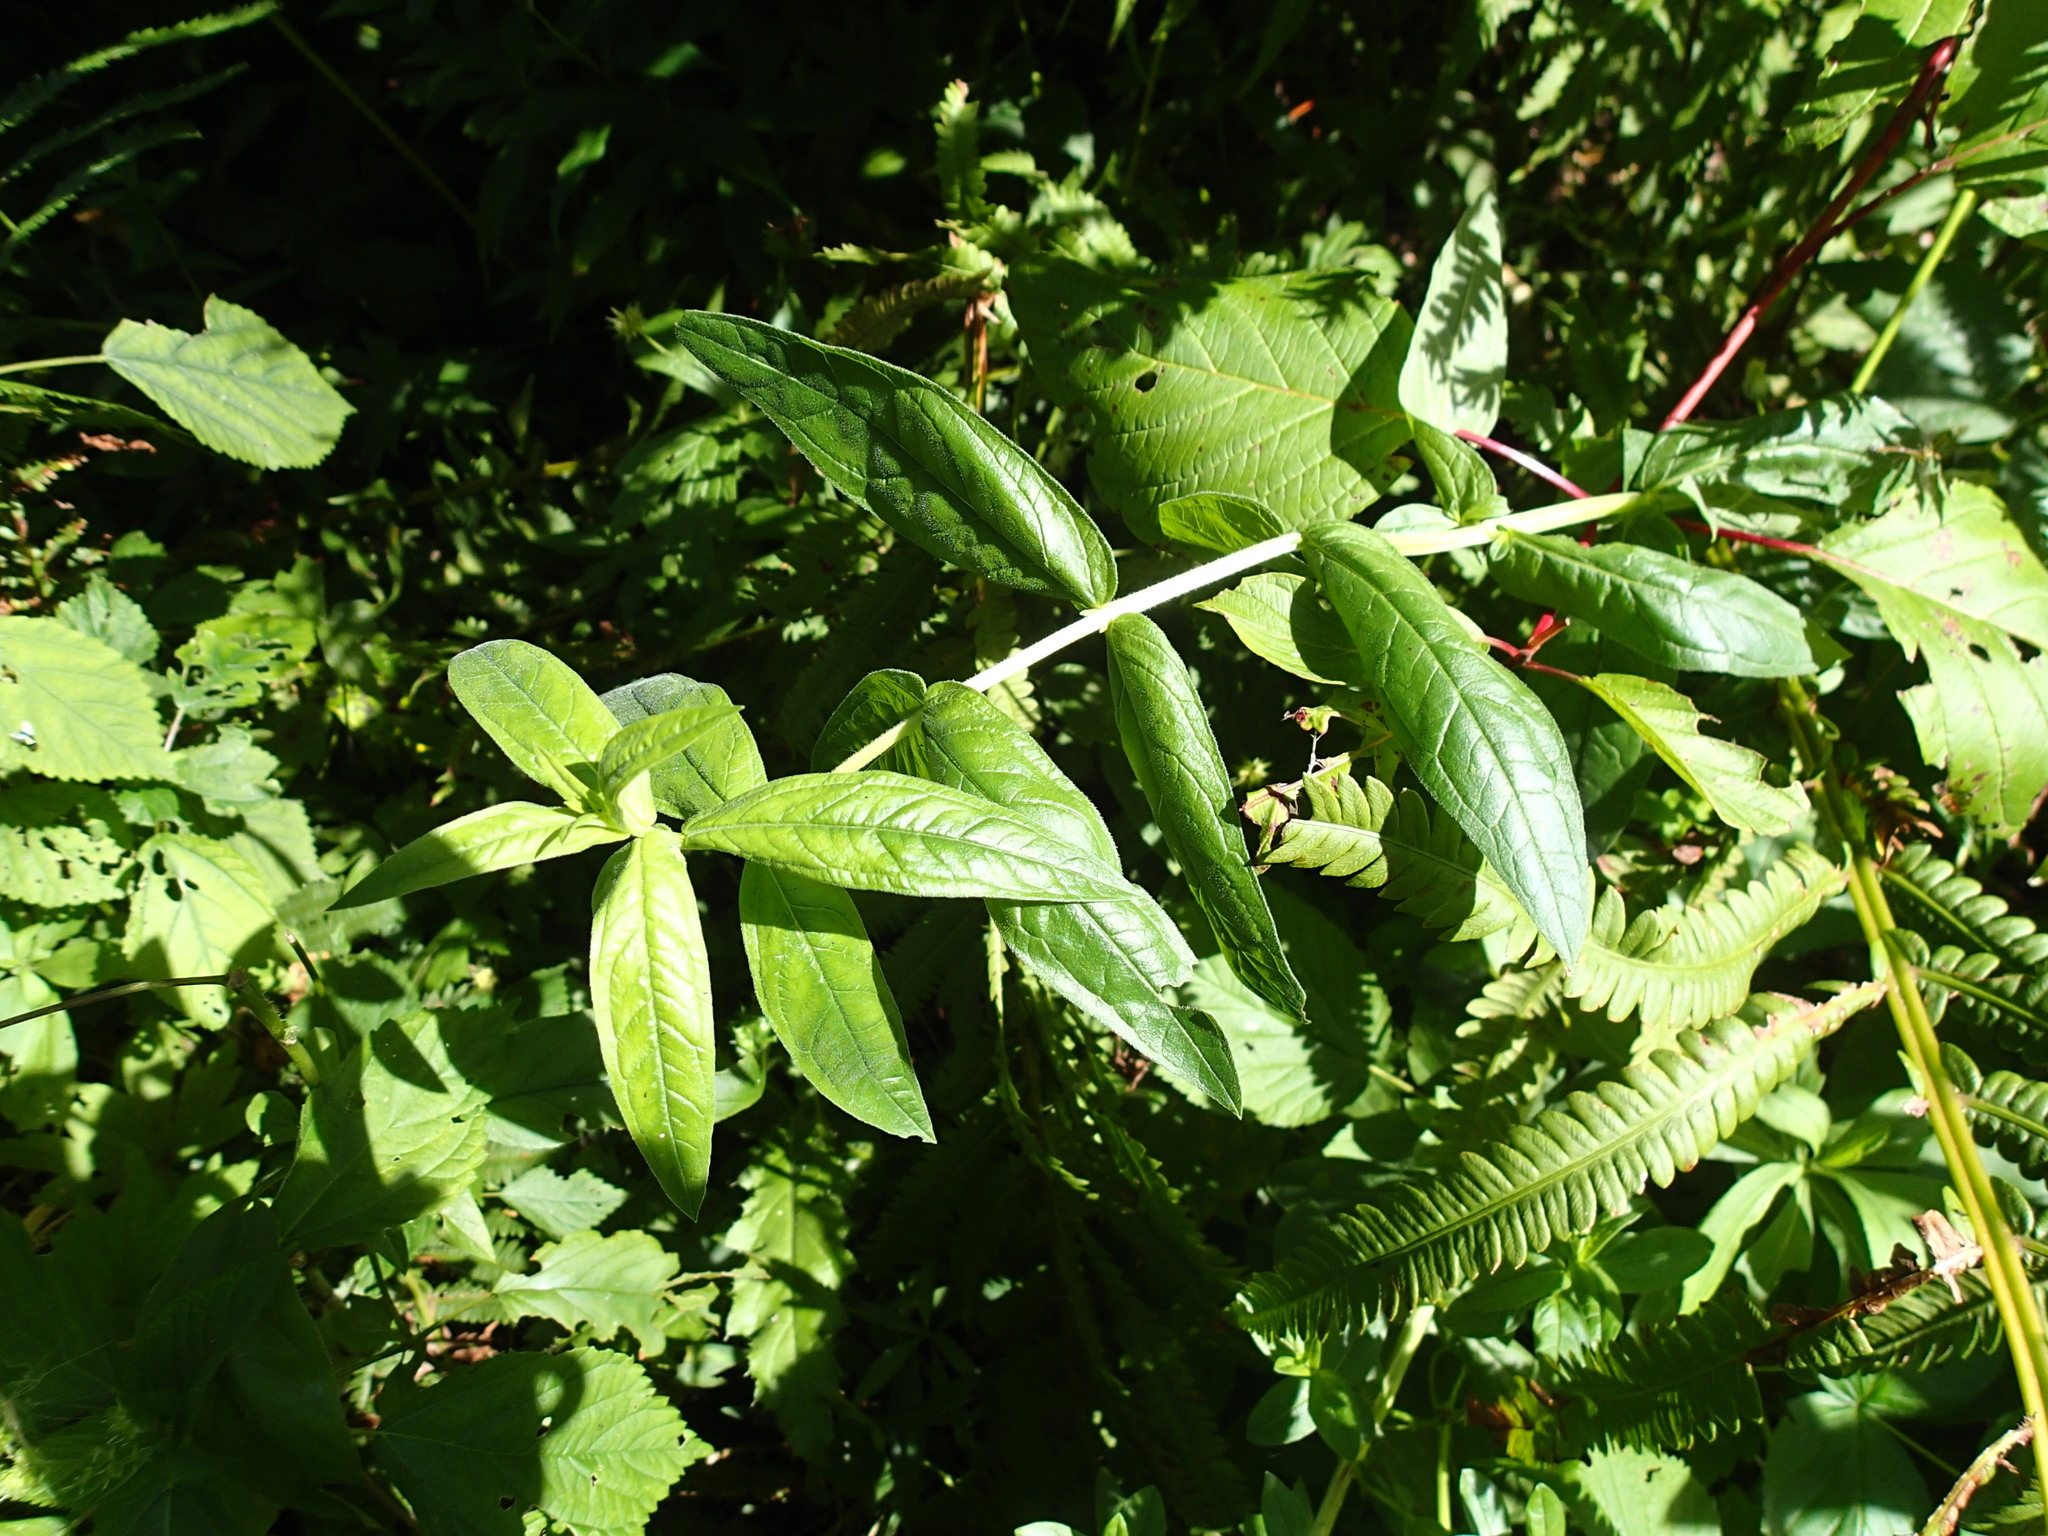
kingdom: Plantae
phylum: Tracheophyta
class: Magnoliopsida
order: Lamiales
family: Plantaginaceae
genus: Chelone
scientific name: Chelone glabra
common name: Snakehead
